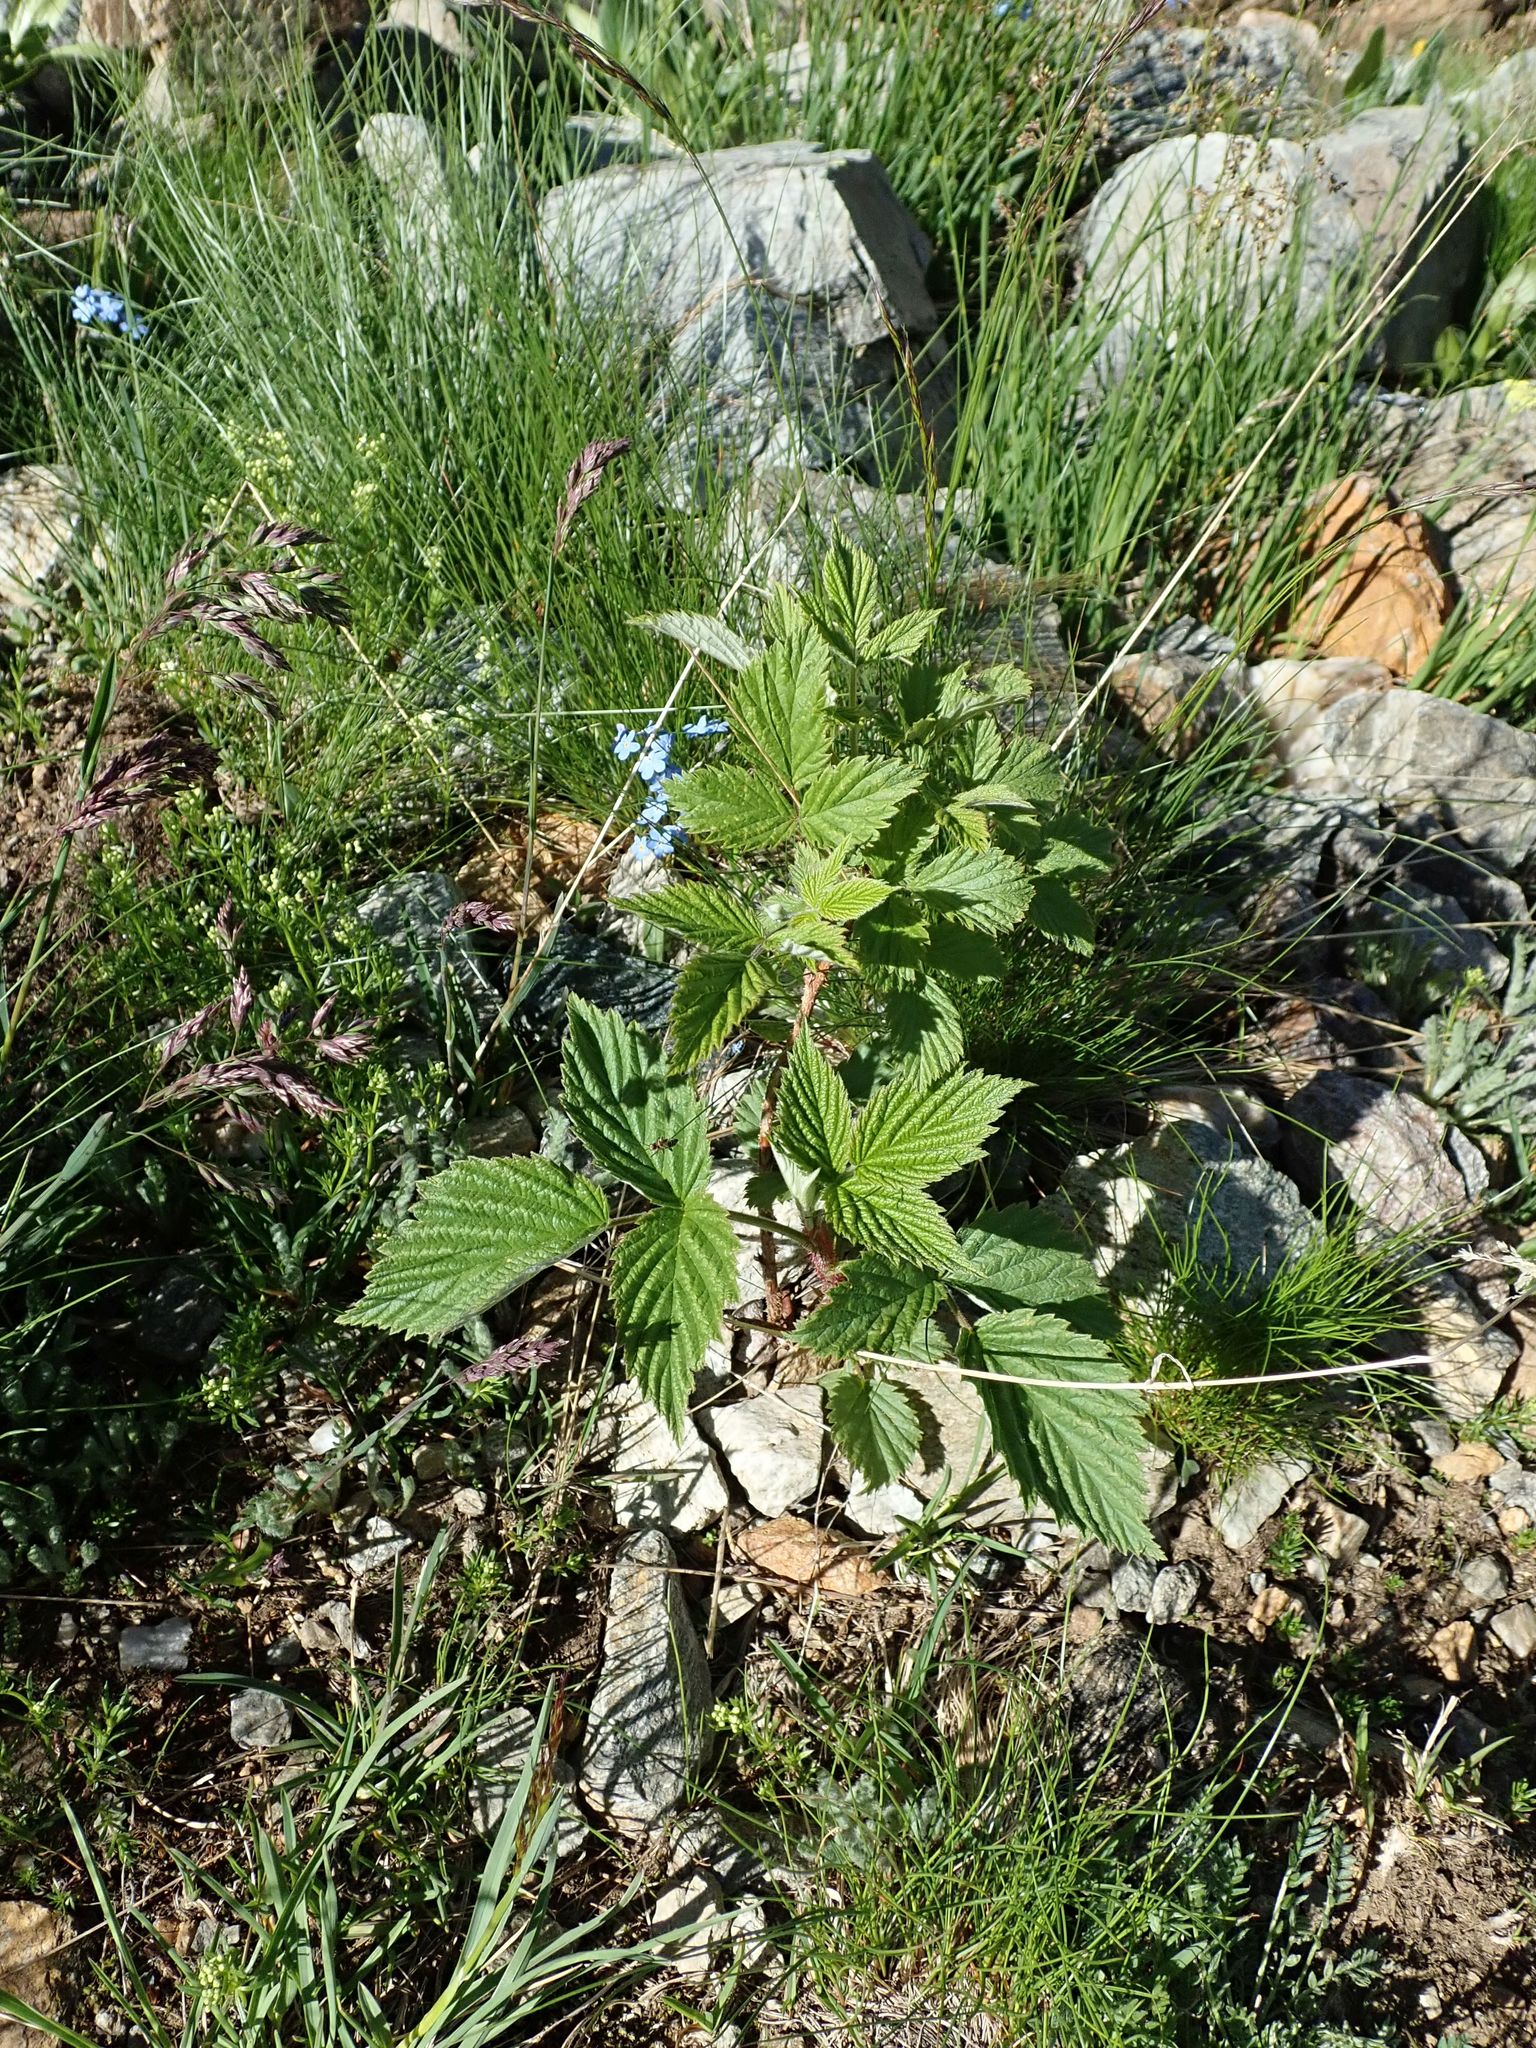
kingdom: Plantae
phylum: Tracheophyta
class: Magnoliopsida
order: Rosales
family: Rosaceae
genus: Rubus
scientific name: Rubus idaeus
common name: Raspberry
